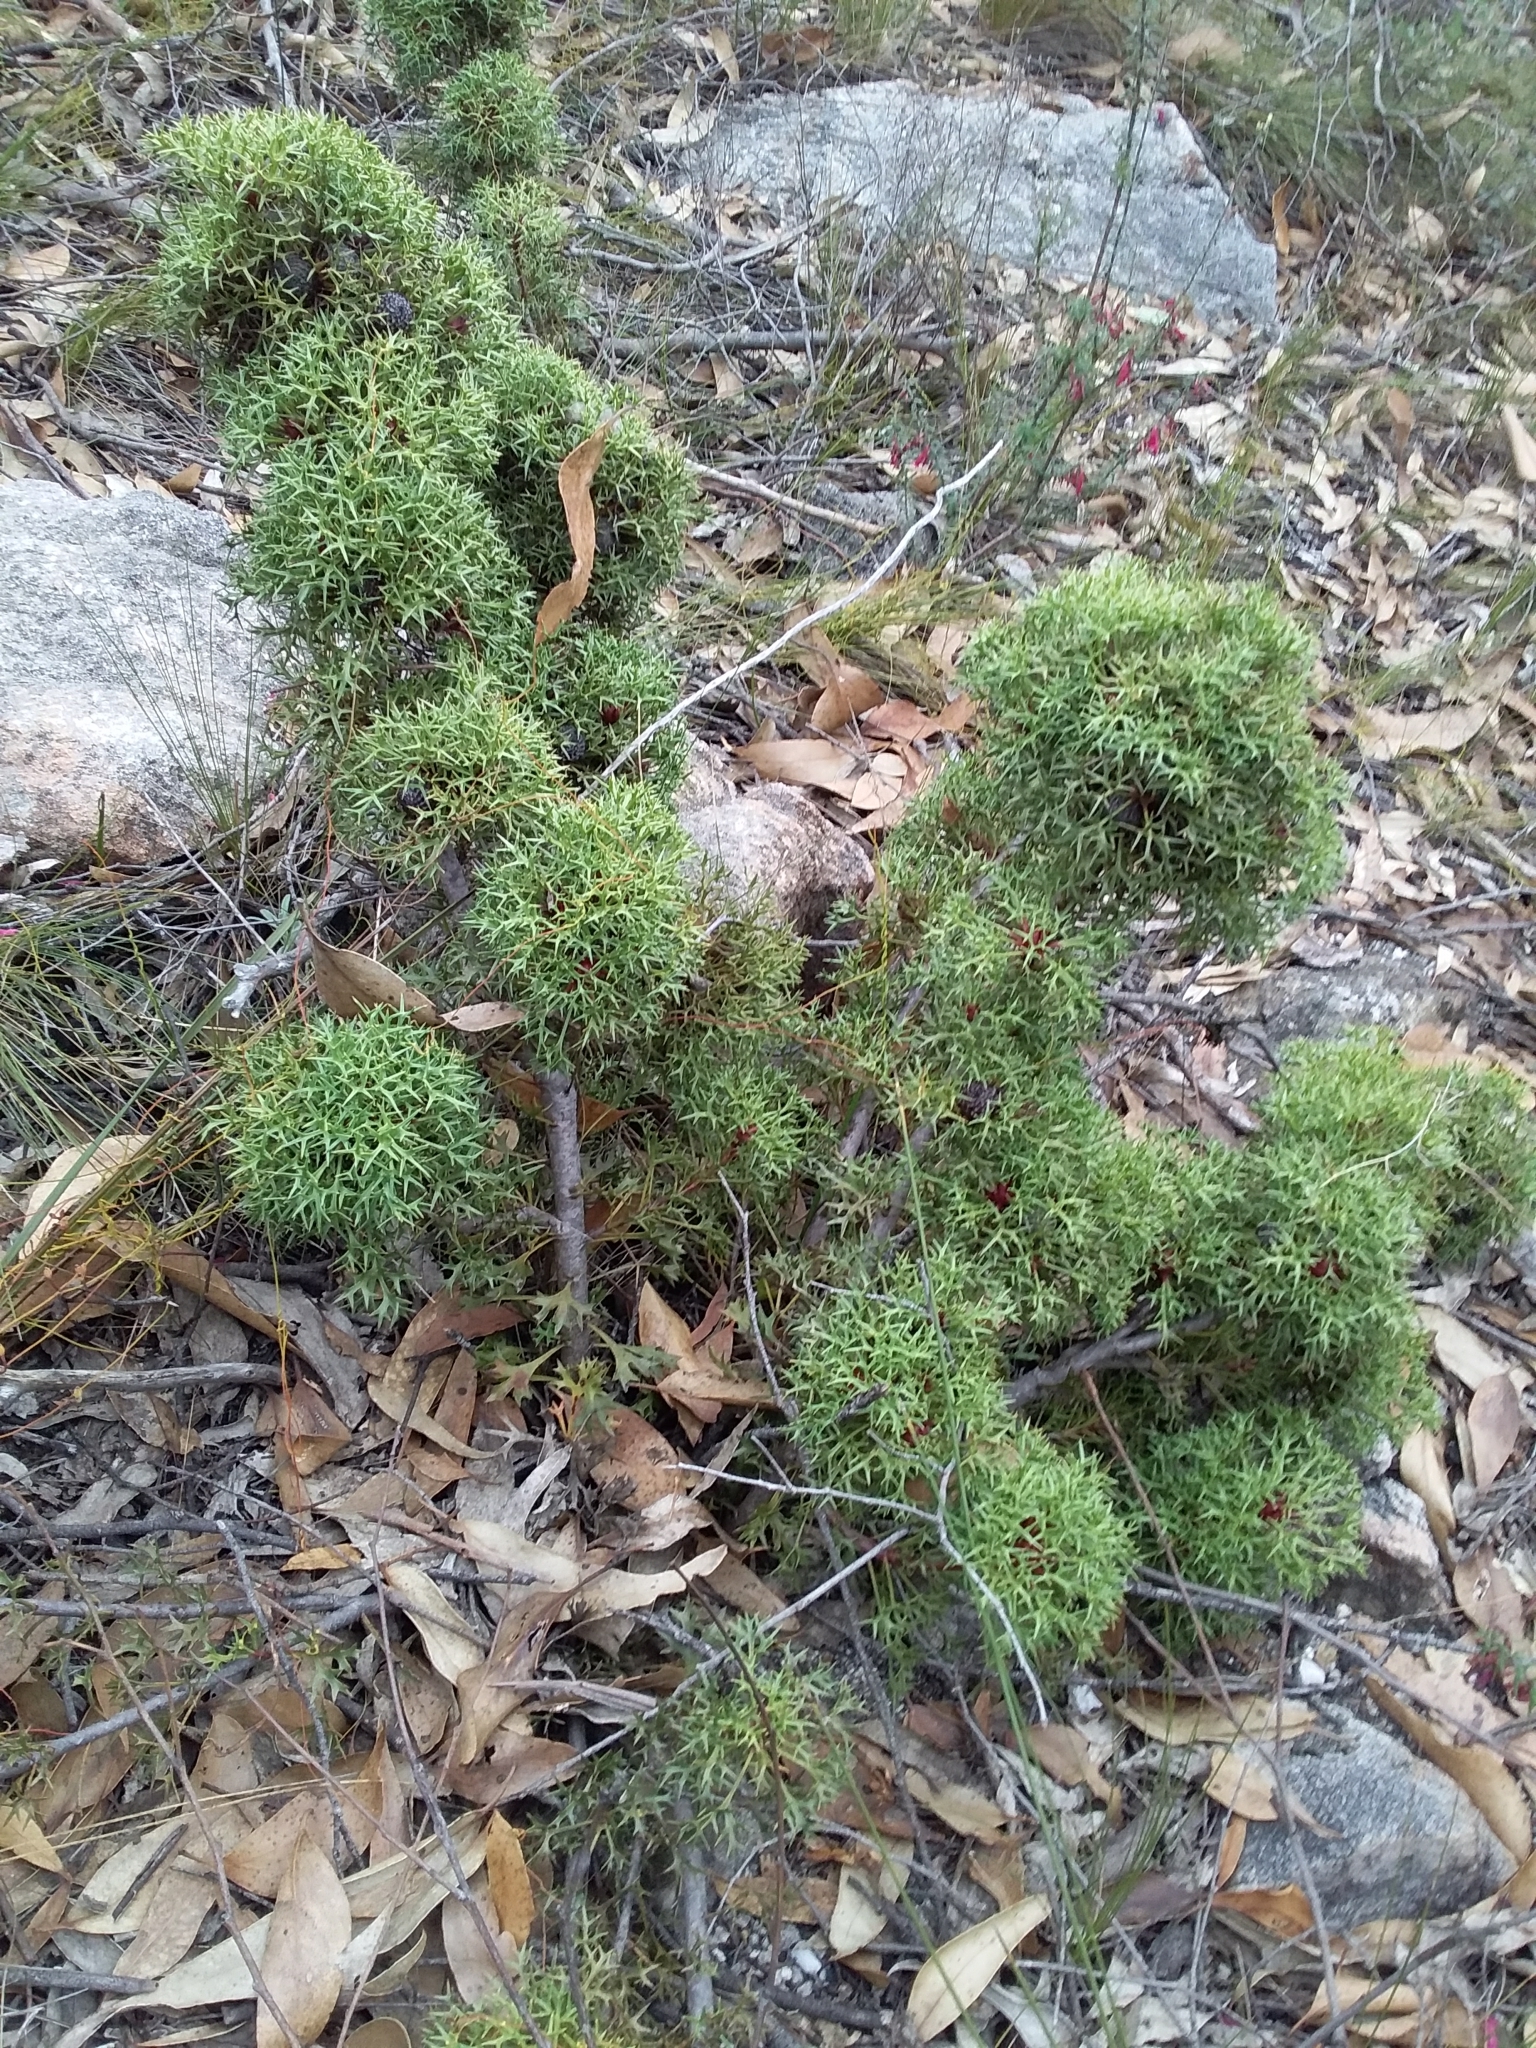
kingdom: Plantae
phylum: Tracheophyta
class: Magnoliopsida
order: Proteales
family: Proteaceae
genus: Isopogon
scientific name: Isopogon ceratophyllus
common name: Horny cone-bush
